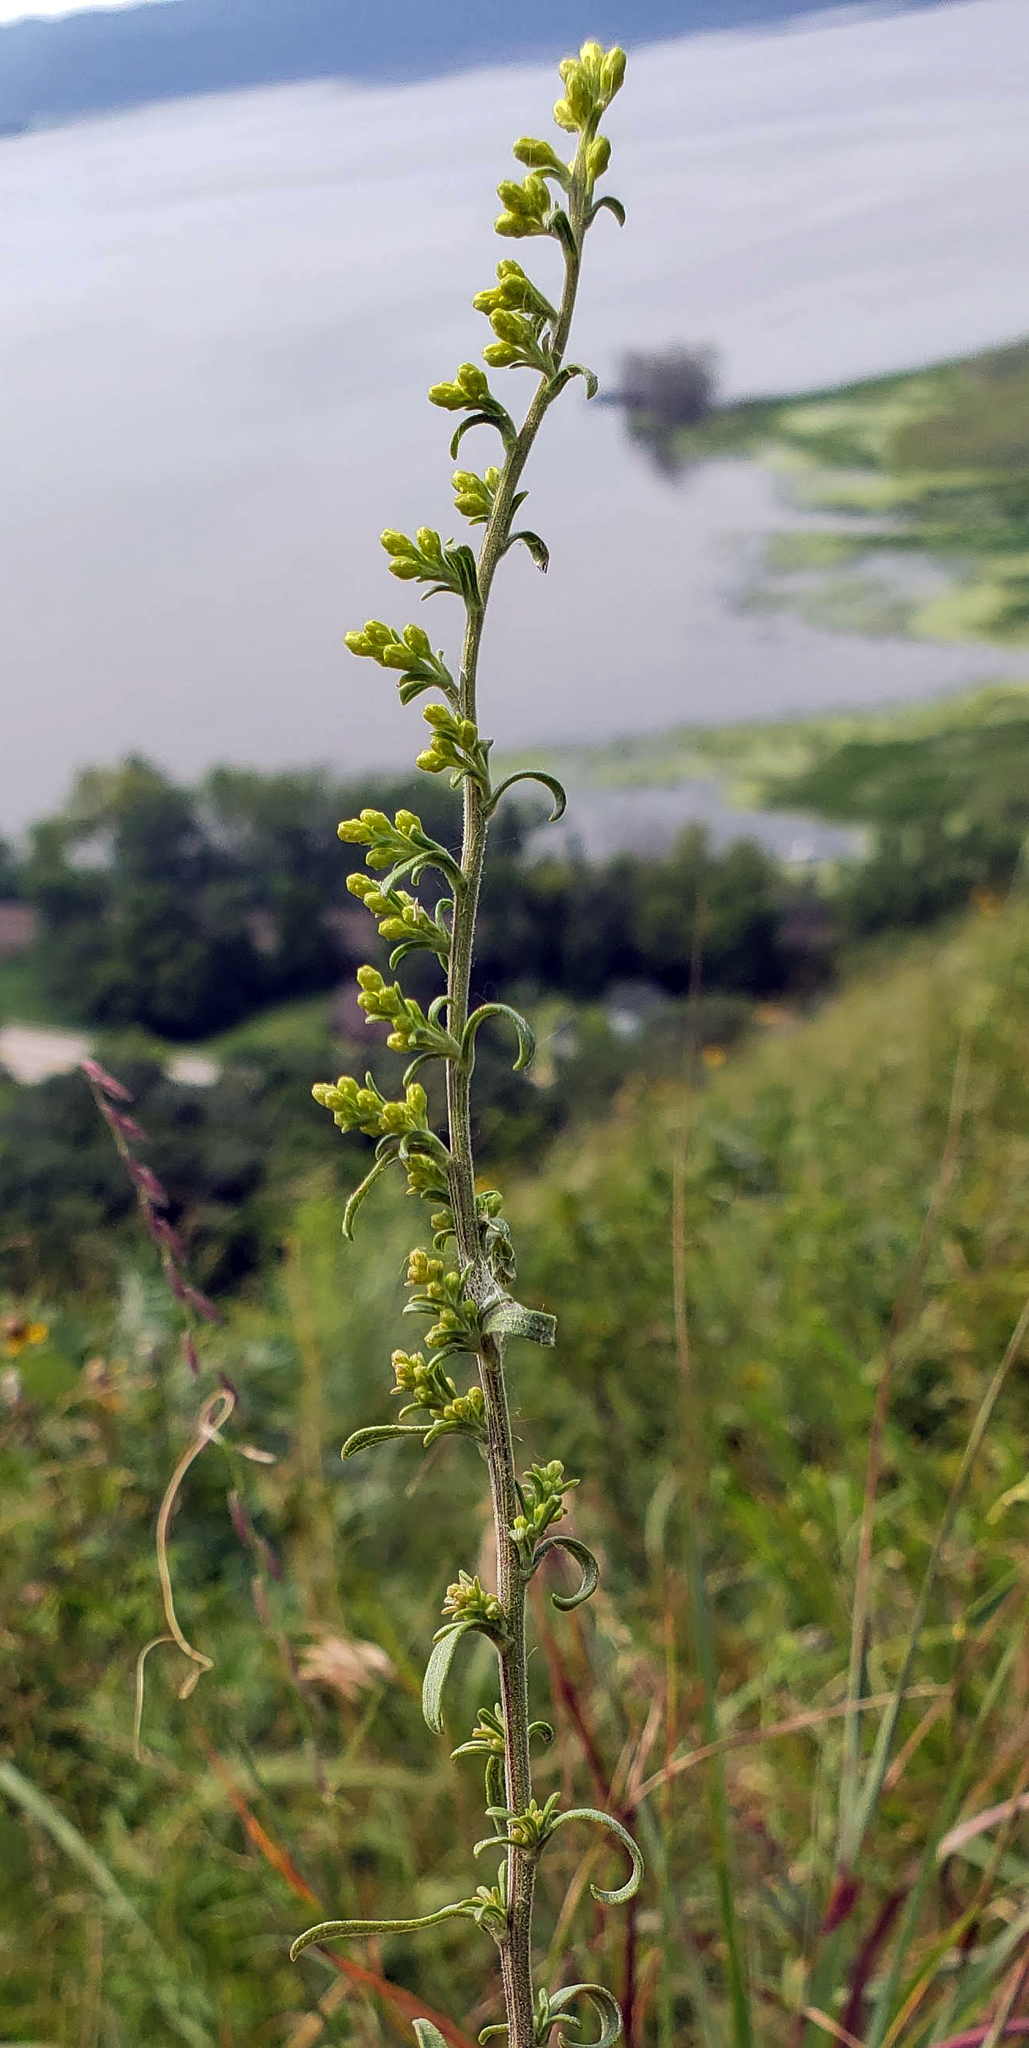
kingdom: Plantae
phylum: Tracheophyta
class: Magnoliopsida
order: Asterales
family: Asteraceae
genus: Solidago
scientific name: Solidago nemoralis
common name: Grey goldenrod
